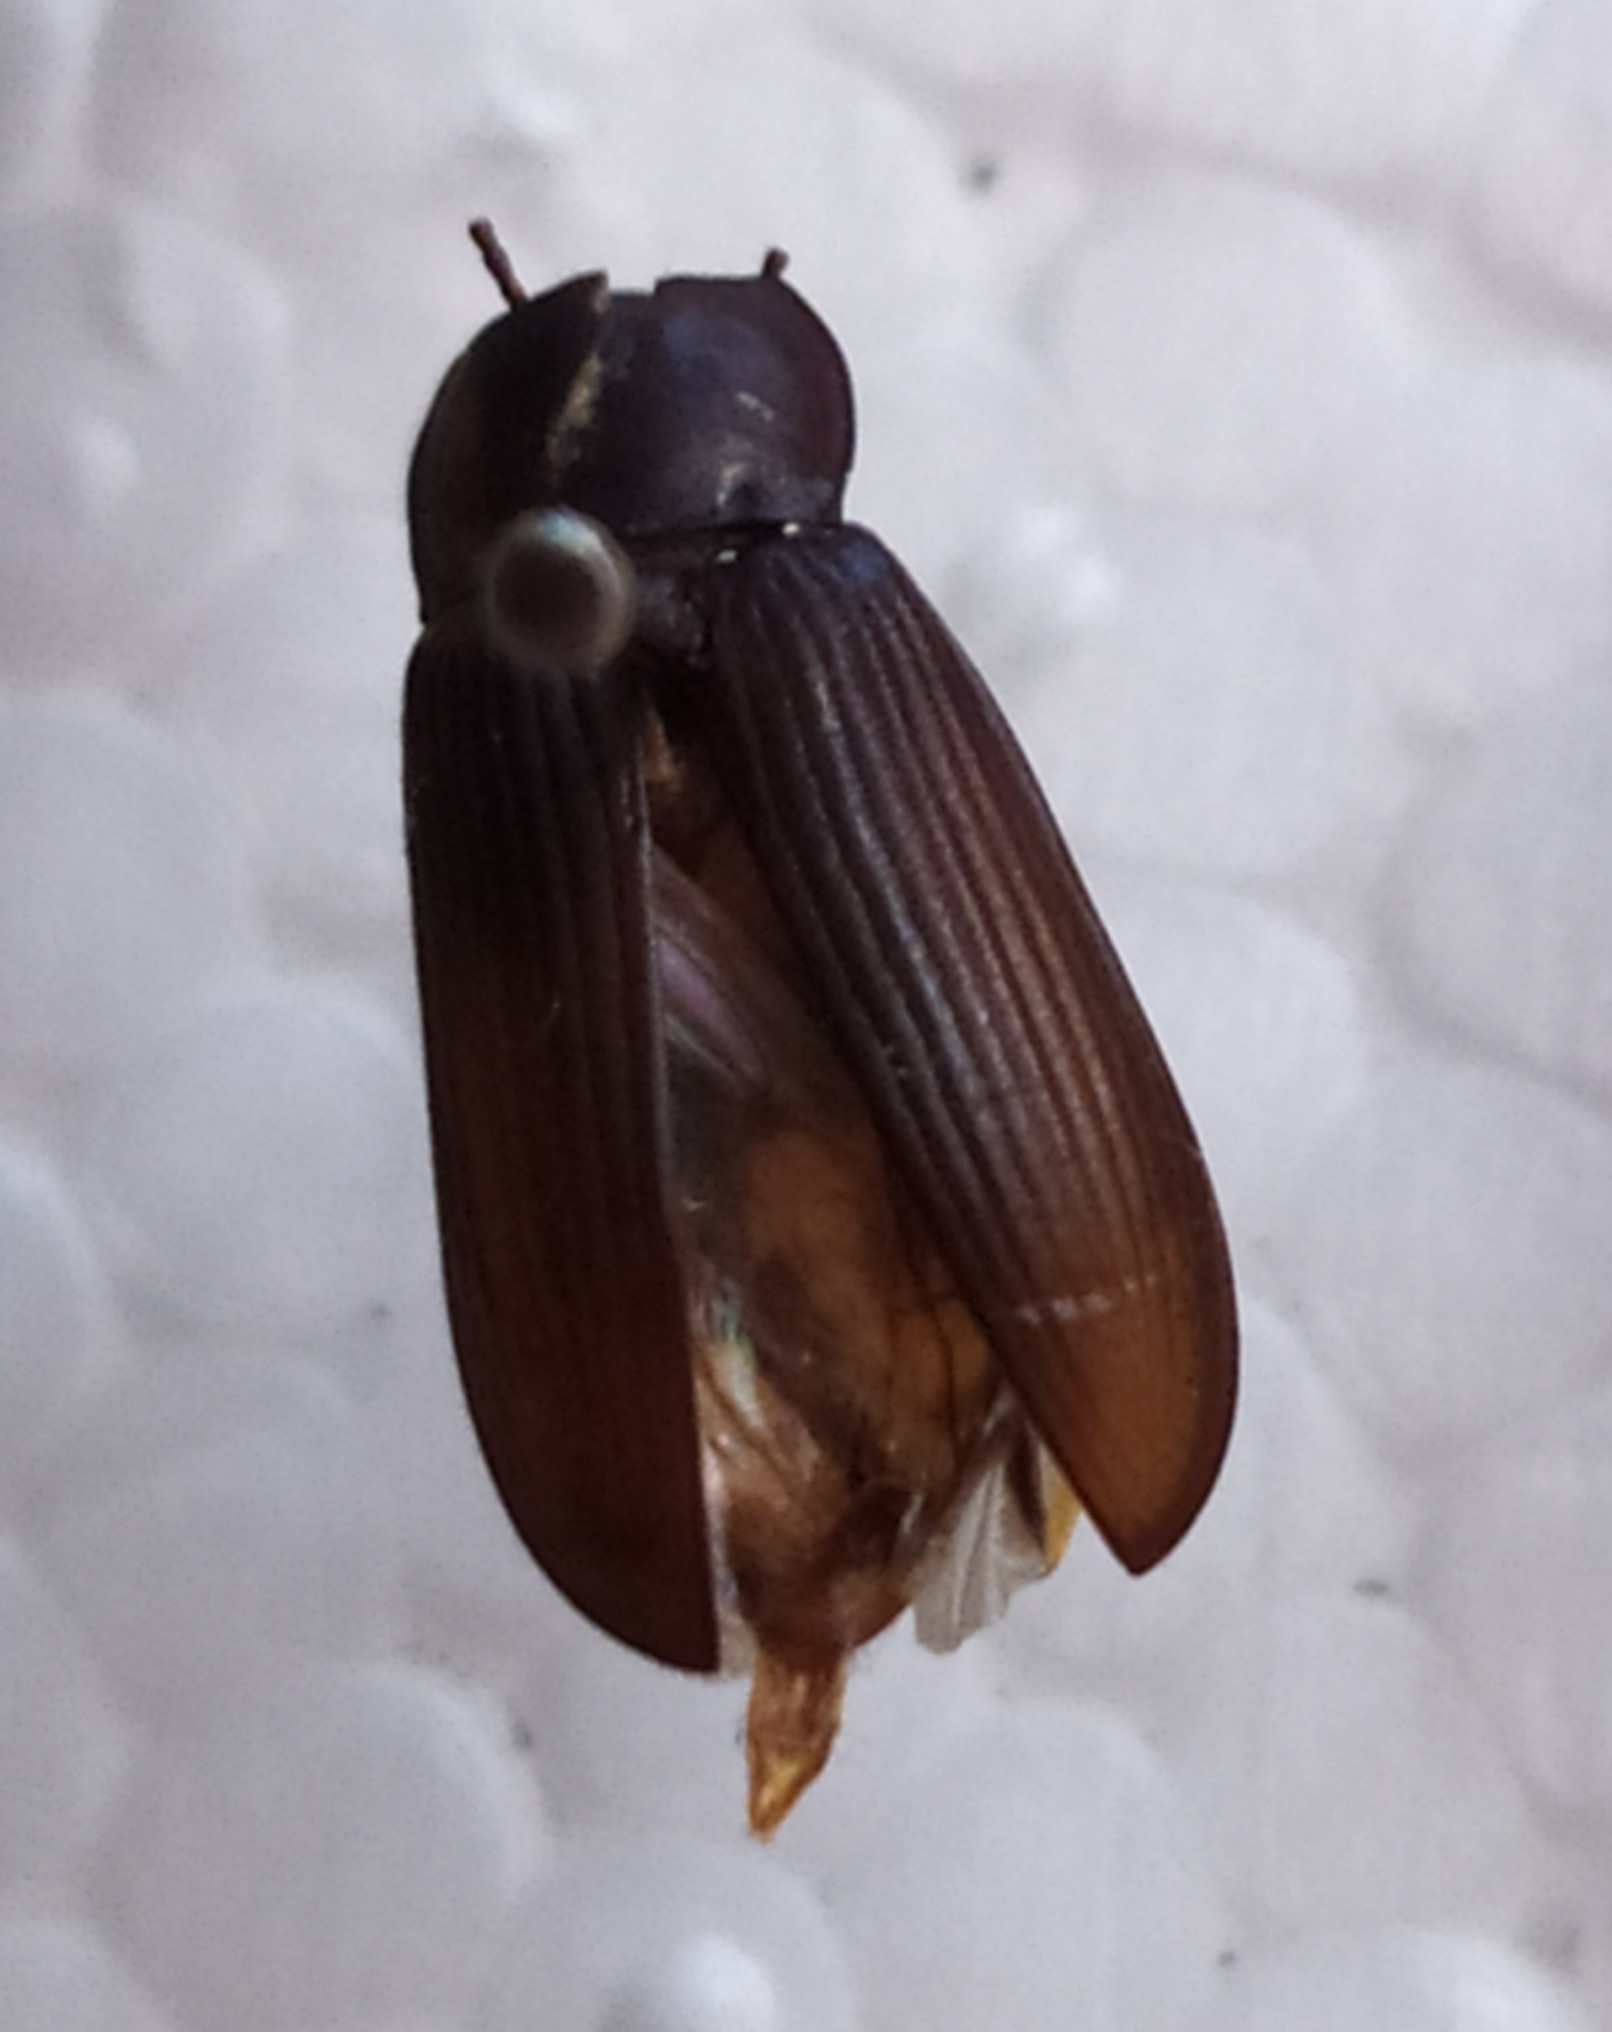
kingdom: Animalia
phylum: Arthropoda
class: Insecta
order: Coleoptera
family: Tenebrionidae
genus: Tenebrio
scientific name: Tenebrio molitor
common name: Hardback beetle
